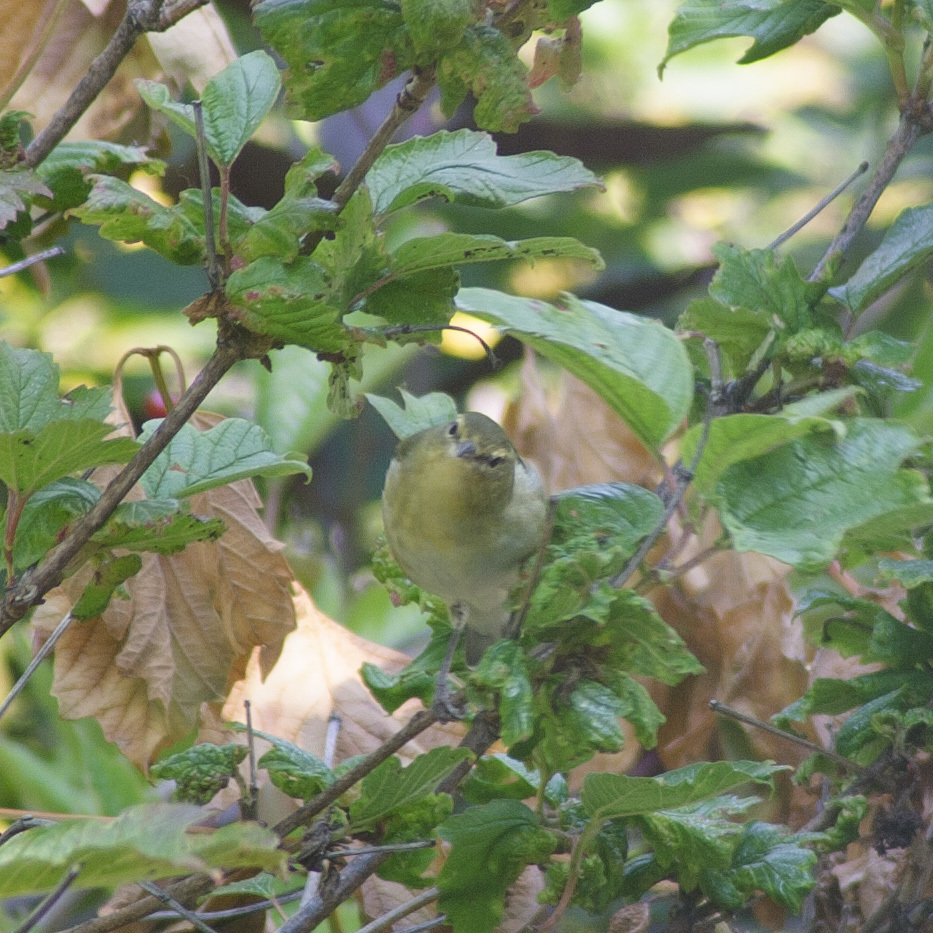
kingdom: Animalia
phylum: Chordata
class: Aves
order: Passeriformes
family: Parulidae
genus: Leiothlypis
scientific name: Leiothlypis peregrina
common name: Tennessee warbler
